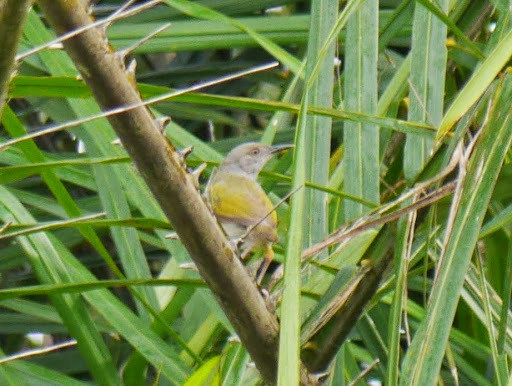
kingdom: Animalia
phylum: Chordata
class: Aves
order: Passeriformes
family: Cisticolidae
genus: Camaroptera
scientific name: Camaroptera brachyura
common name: Green-backed camaroptera
